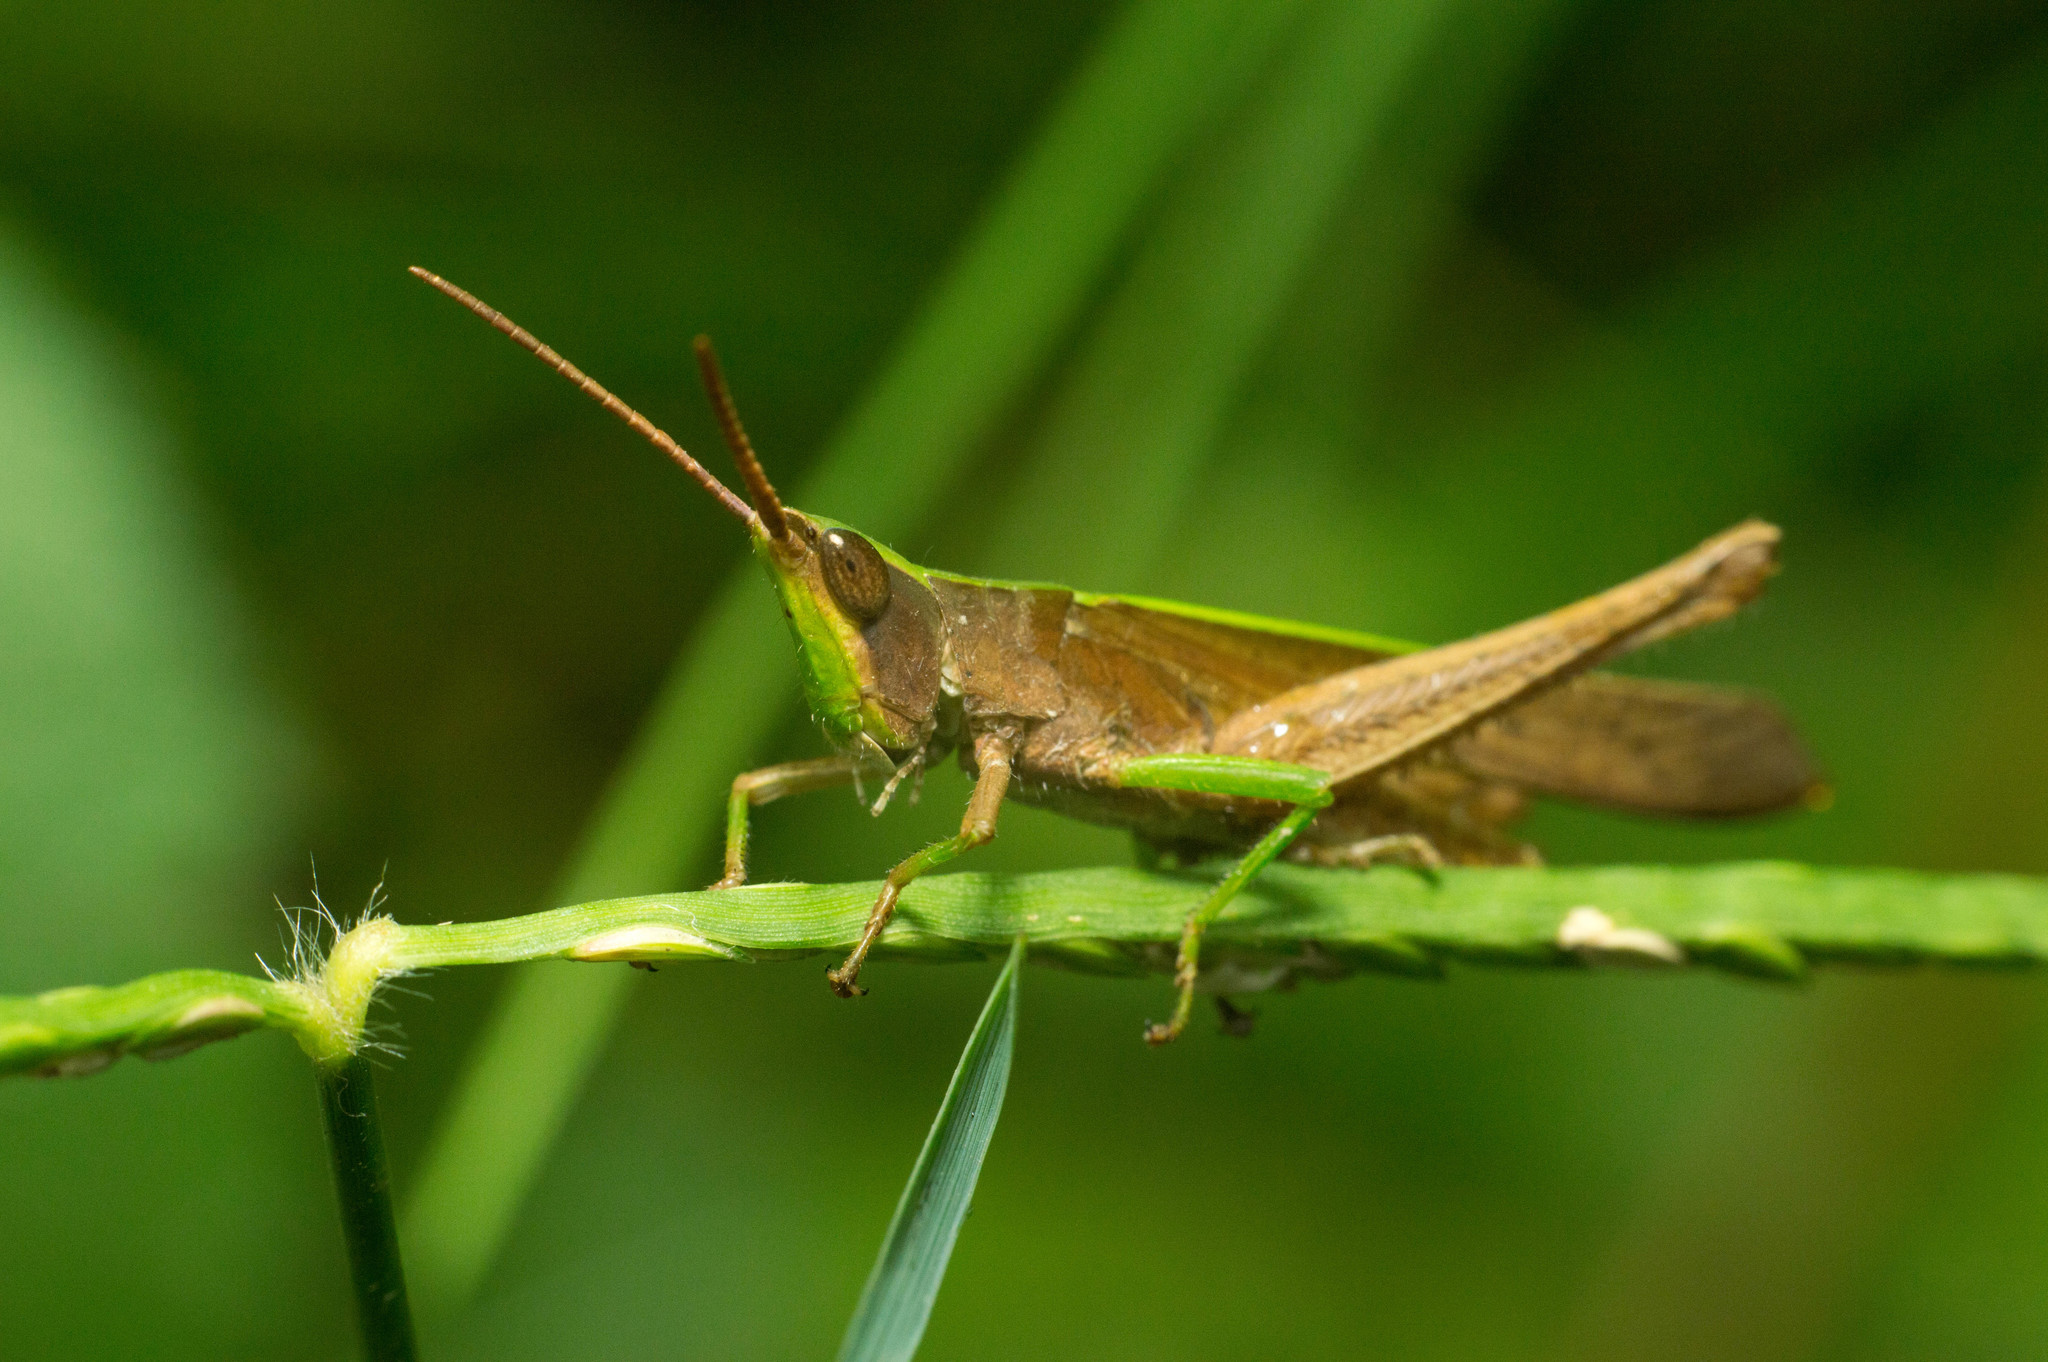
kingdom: Animalia
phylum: Arthropoda
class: Insecta
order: Orthoptera
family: Acrididae
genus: Metaleptea
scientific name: Metaleptea adspersa
